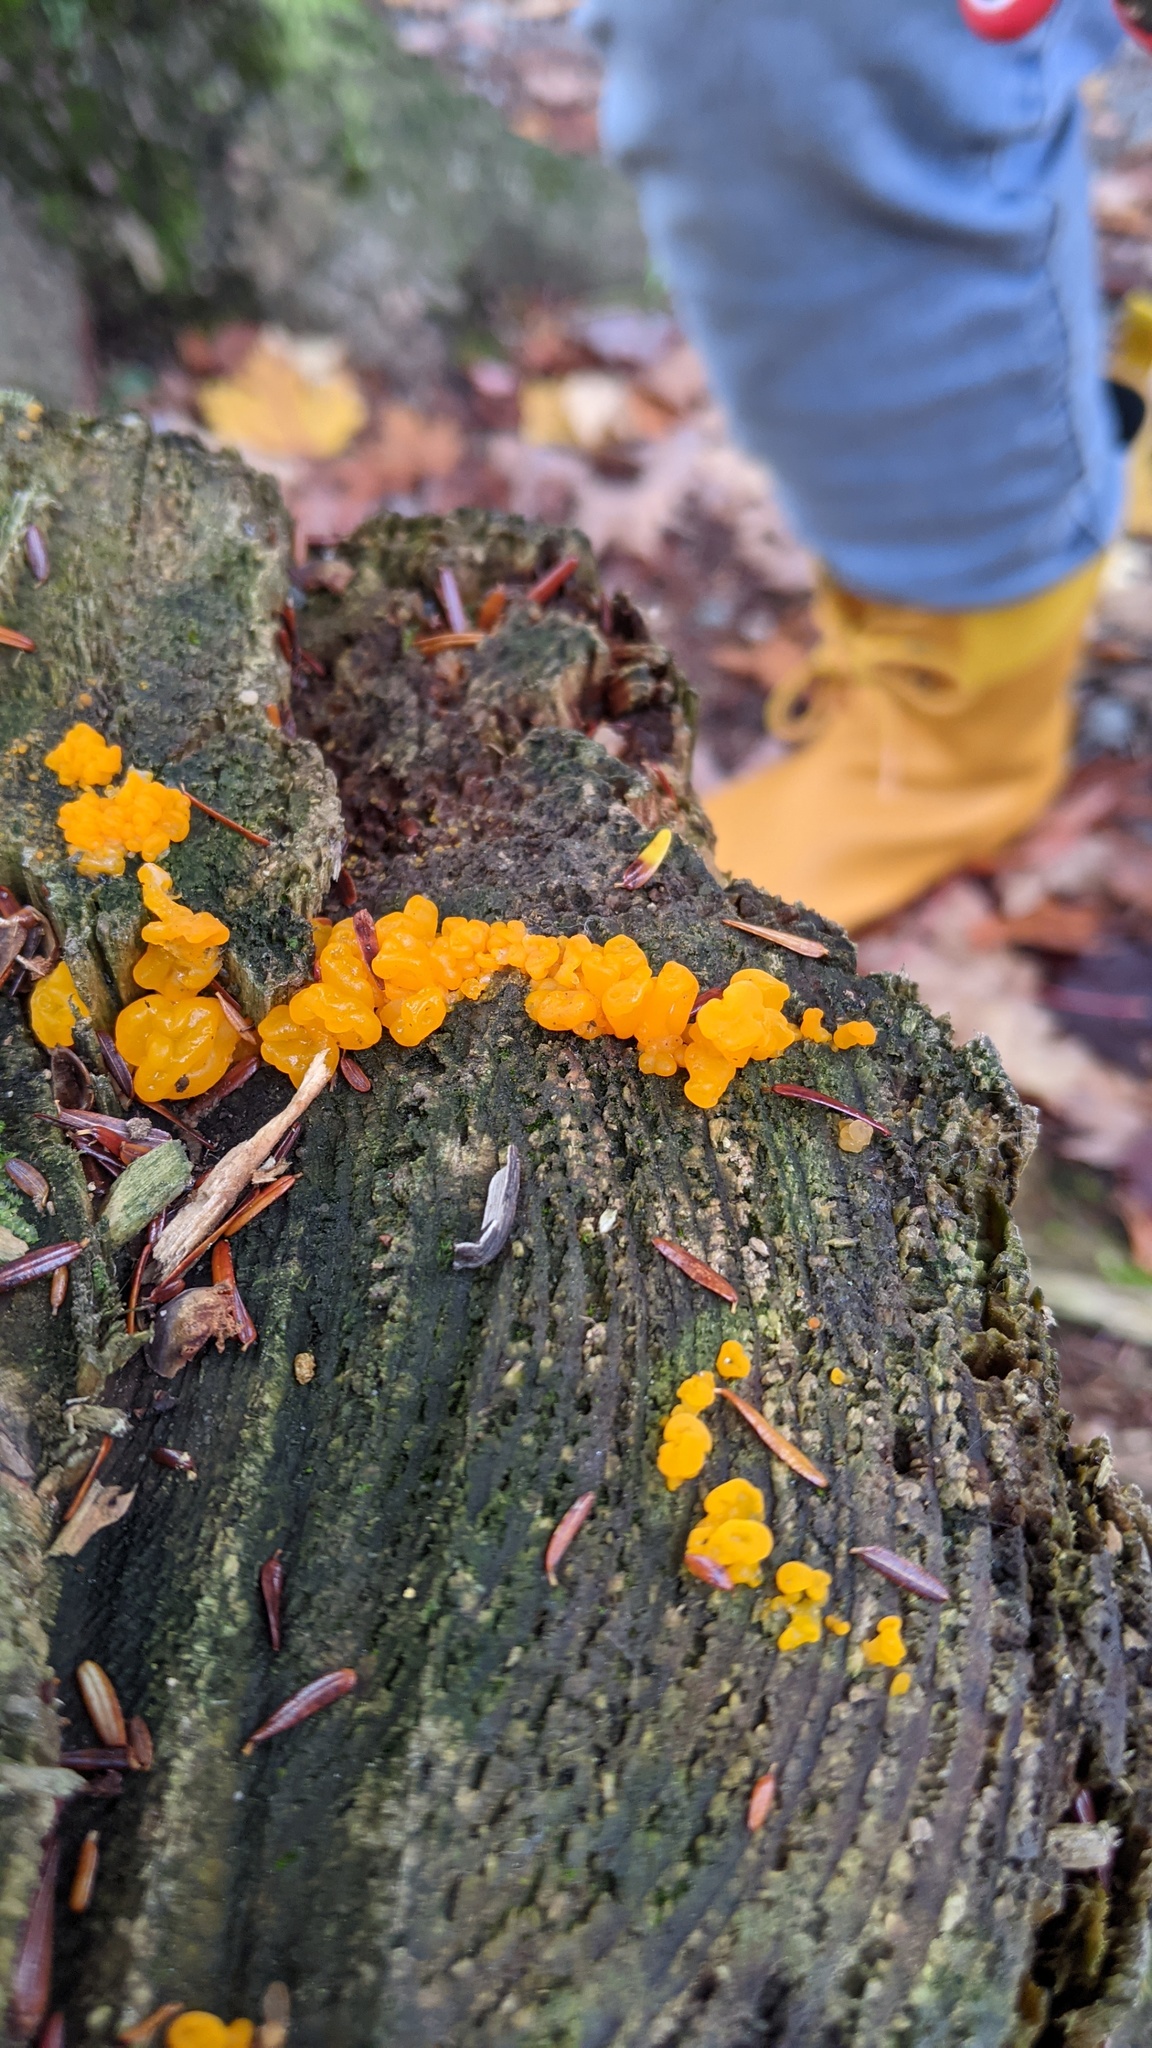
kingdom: Fungi
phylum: Basidiomycota
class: Dacrymycetes
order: Dacrymycetales
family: Dacrymycetaceae
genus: Dacrymyces
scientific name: Dacrymyces chrysospermus
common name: Orange jelly spot
